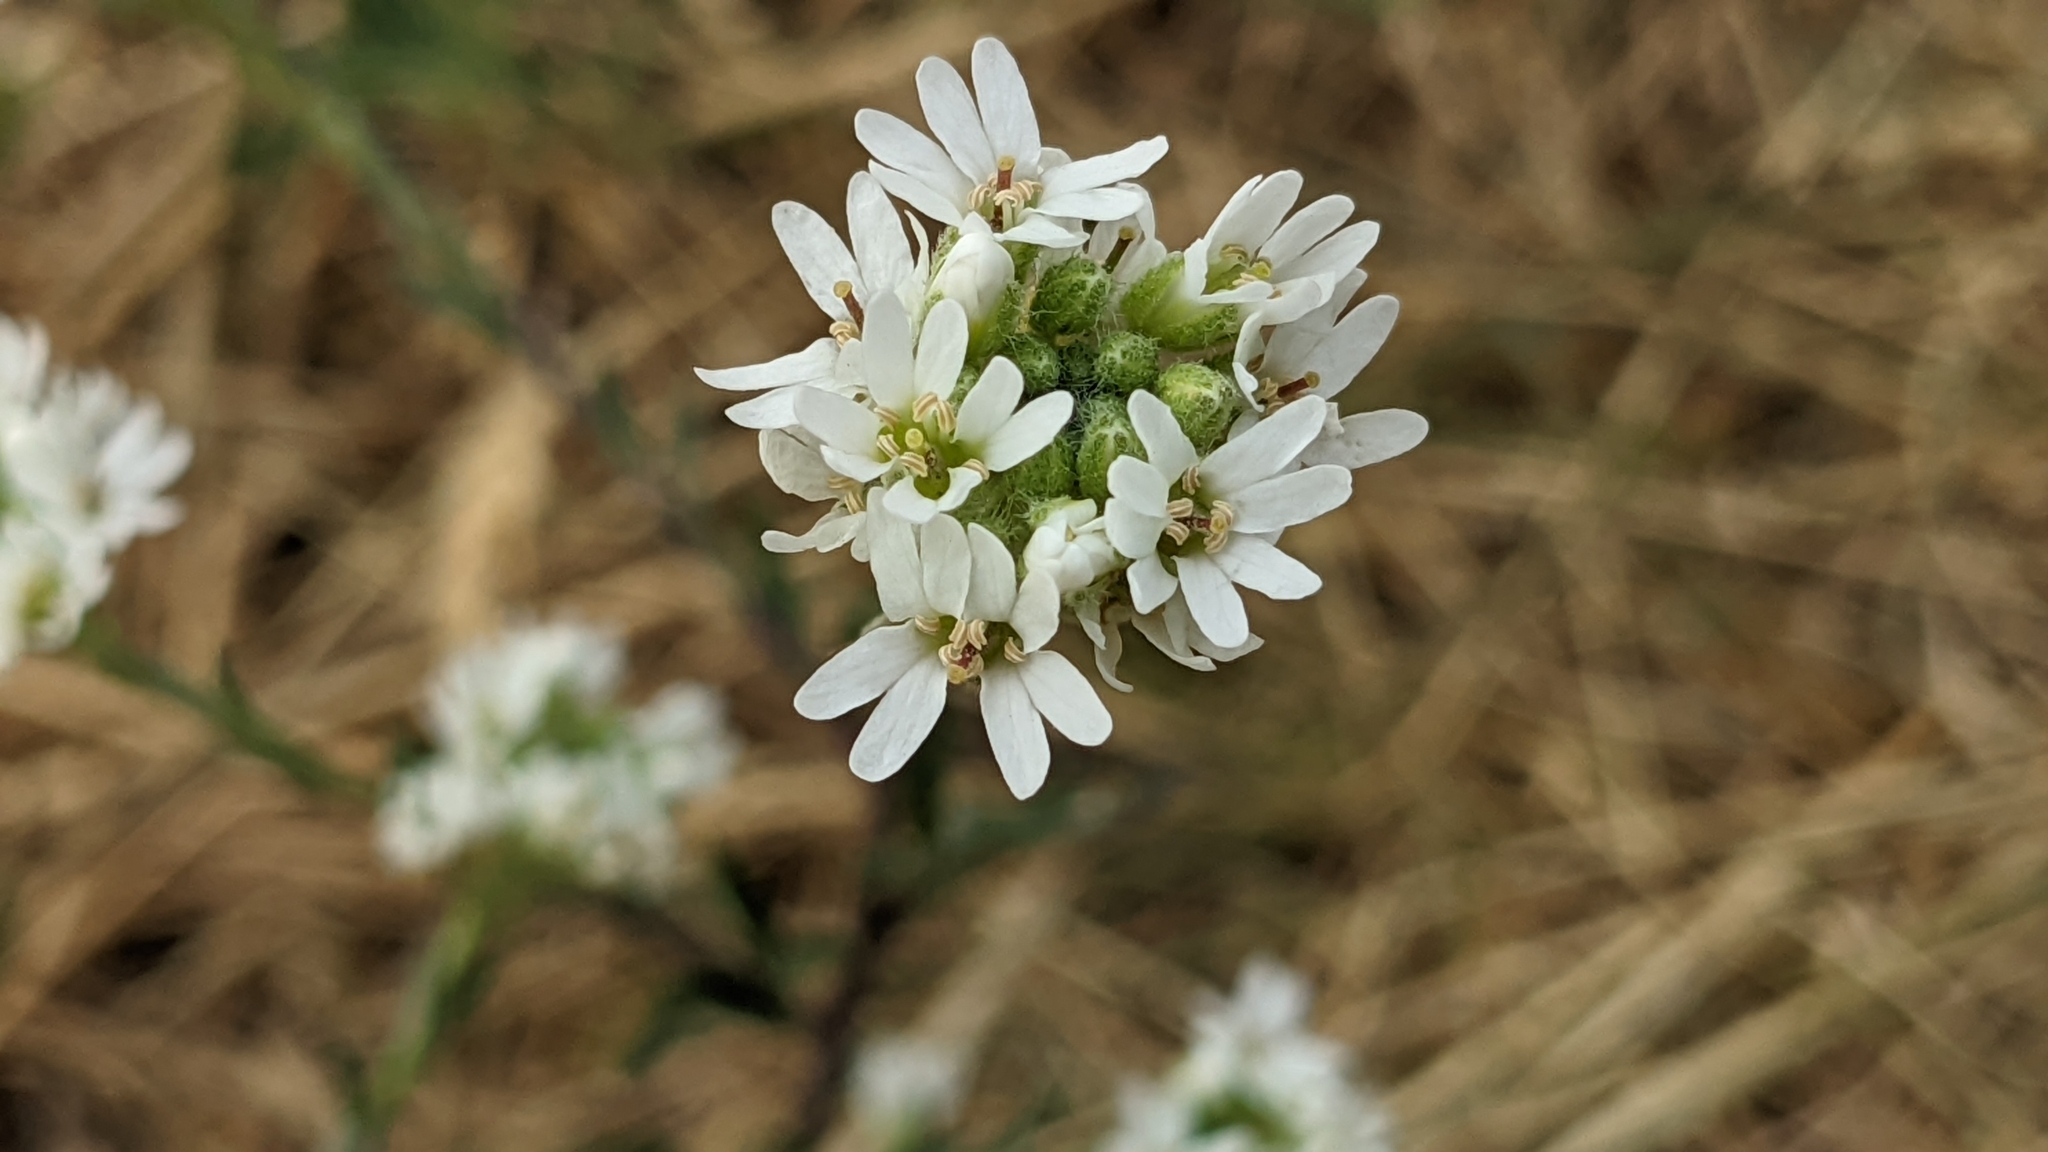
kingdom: Plantae
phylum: Tracheophyta
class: Magnoliopsida
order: Brassicales
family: Brassicaceae
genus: Berteroa
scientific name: Berteroa incana
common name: Hoary alison
